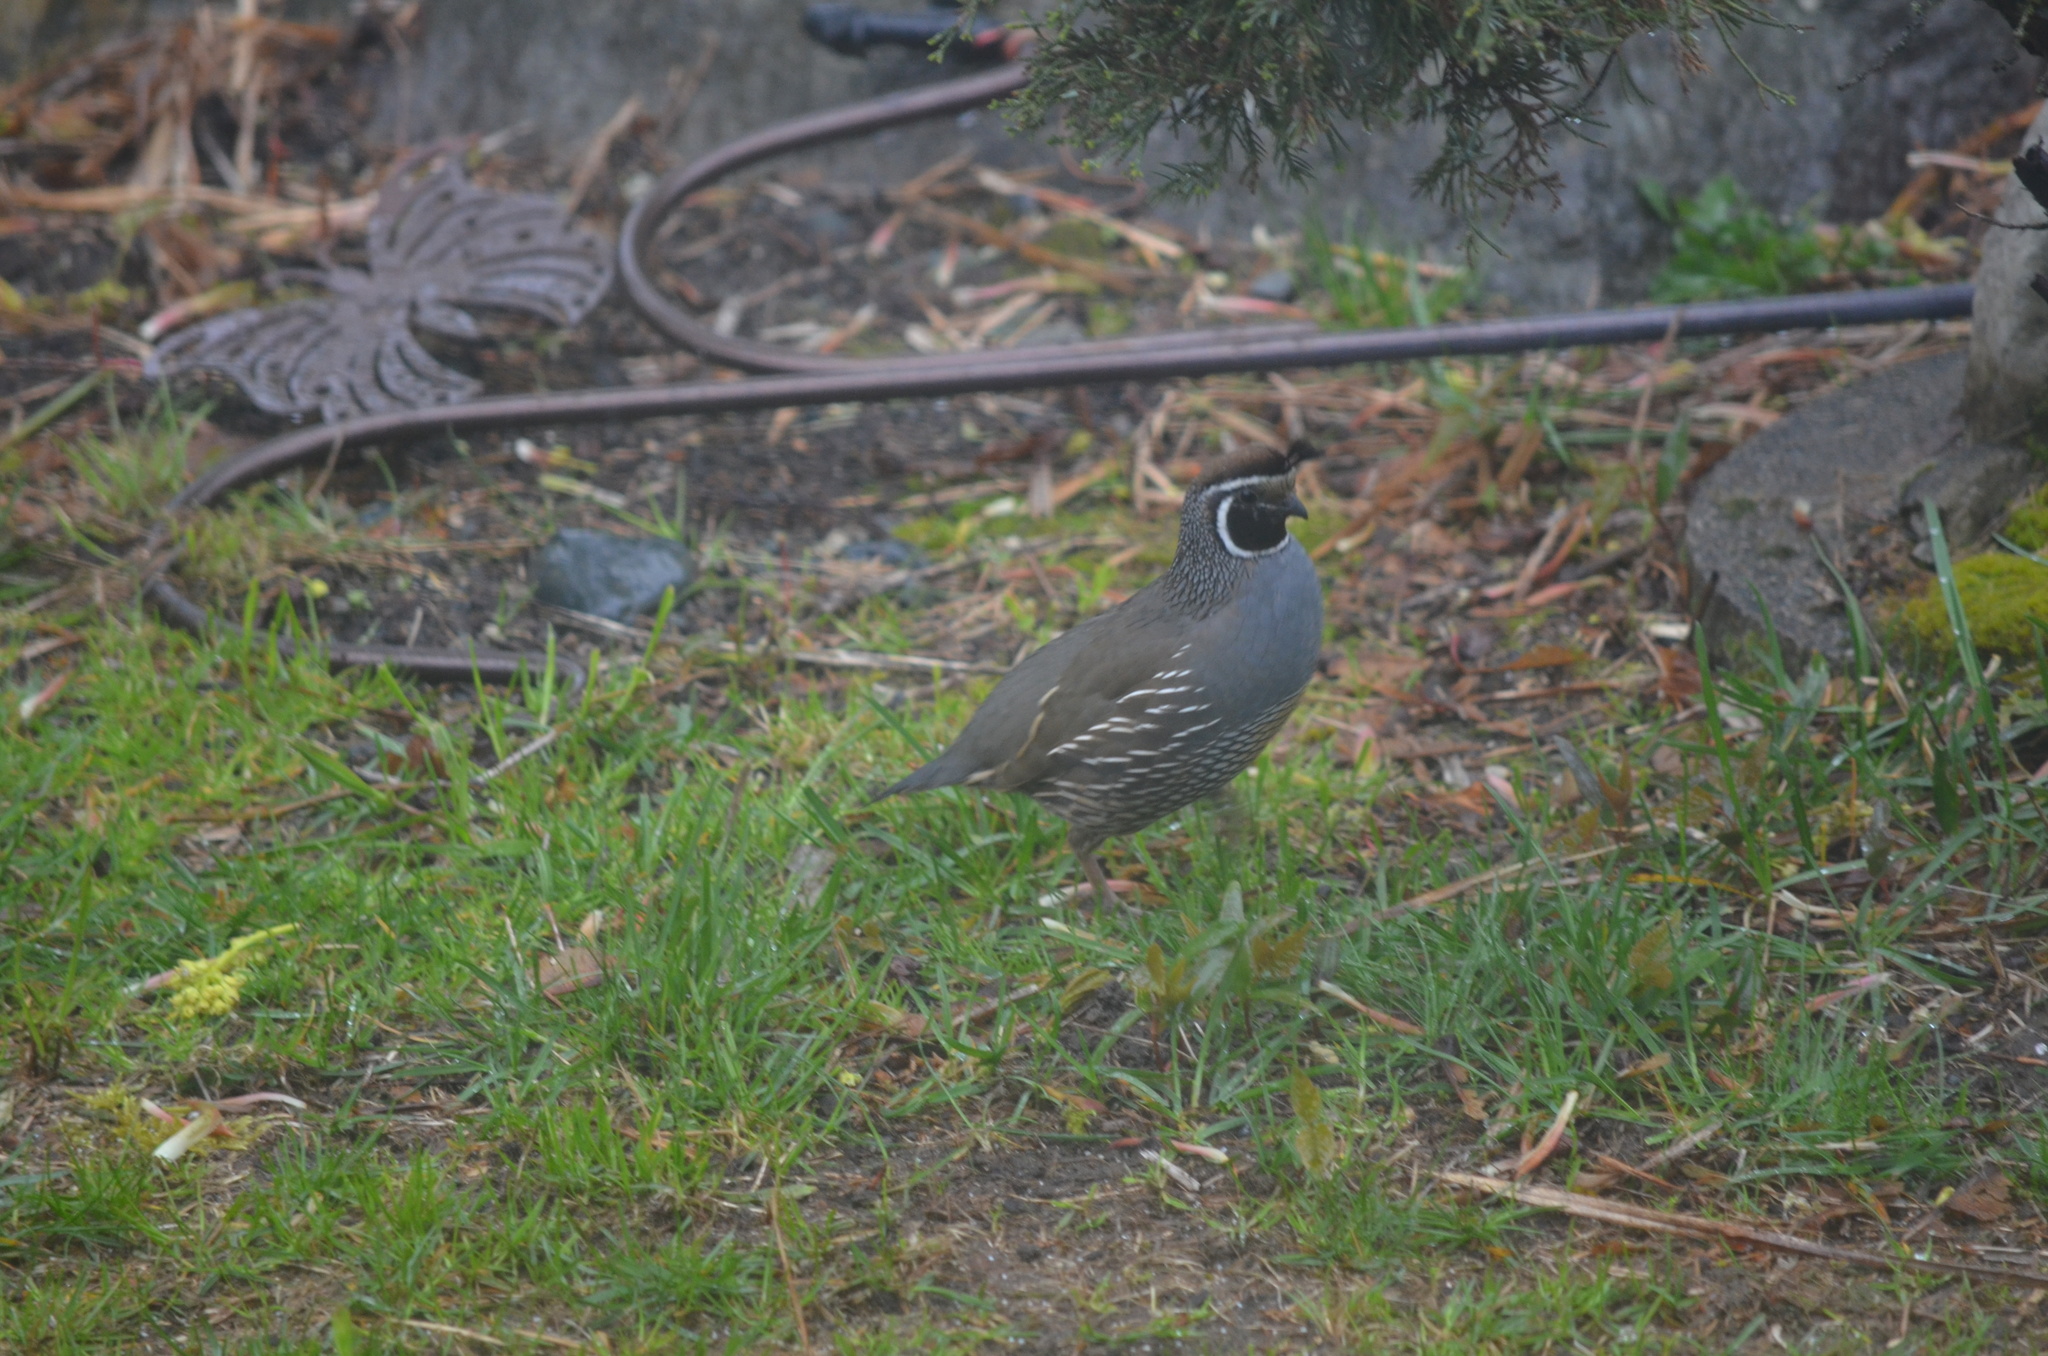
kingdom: Animalia
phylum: Chordata
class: Aves
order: Galliformes
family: Odontophoridae
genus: Callipepla
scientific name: Callipepla californica
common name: California quail
